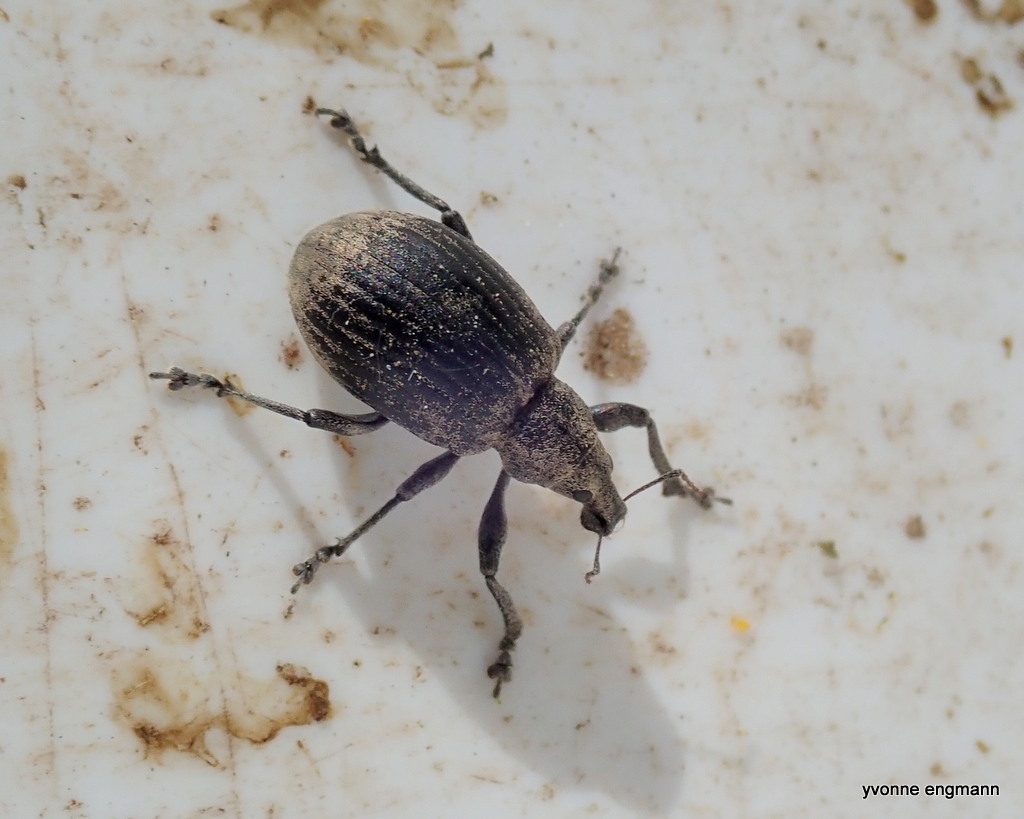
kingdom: Animalia
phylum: Arthropoda
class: Insecta
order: Coleoptera
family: Curculionidae
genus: Liophloeus
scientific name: Liophloeus tessulatus
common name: Weevil
